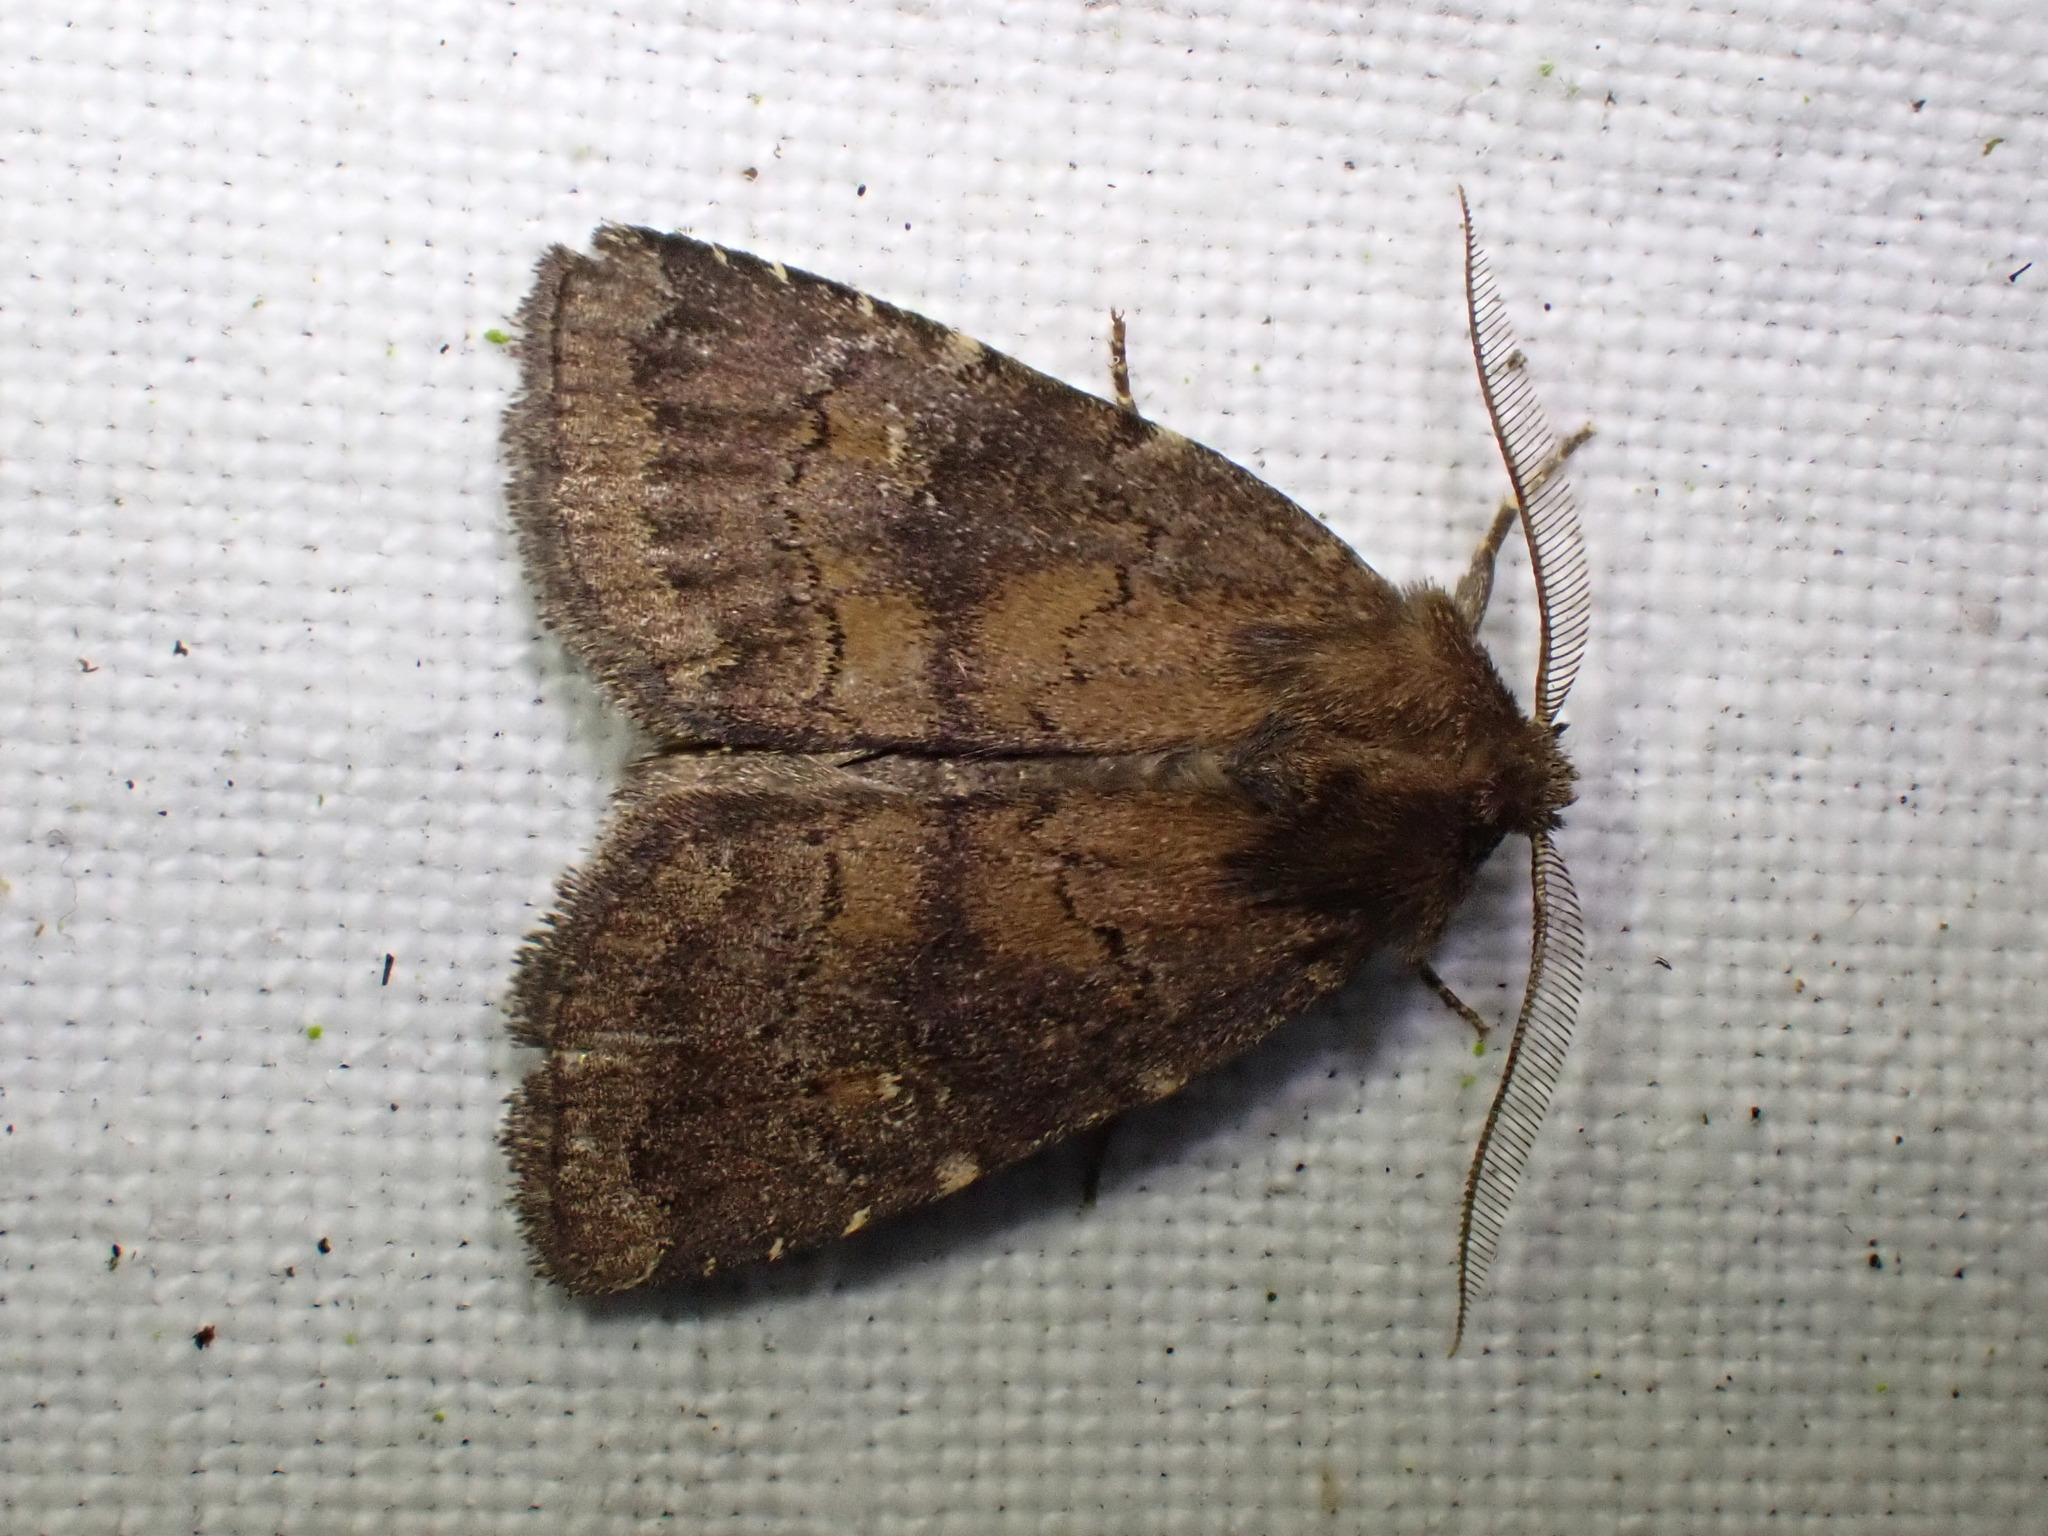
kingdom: Animalia
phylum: Arthropoda
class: Insecta
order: Lepidoptera
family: Noctuidae
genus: Charanyca
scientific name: Charanyca ferruginea
